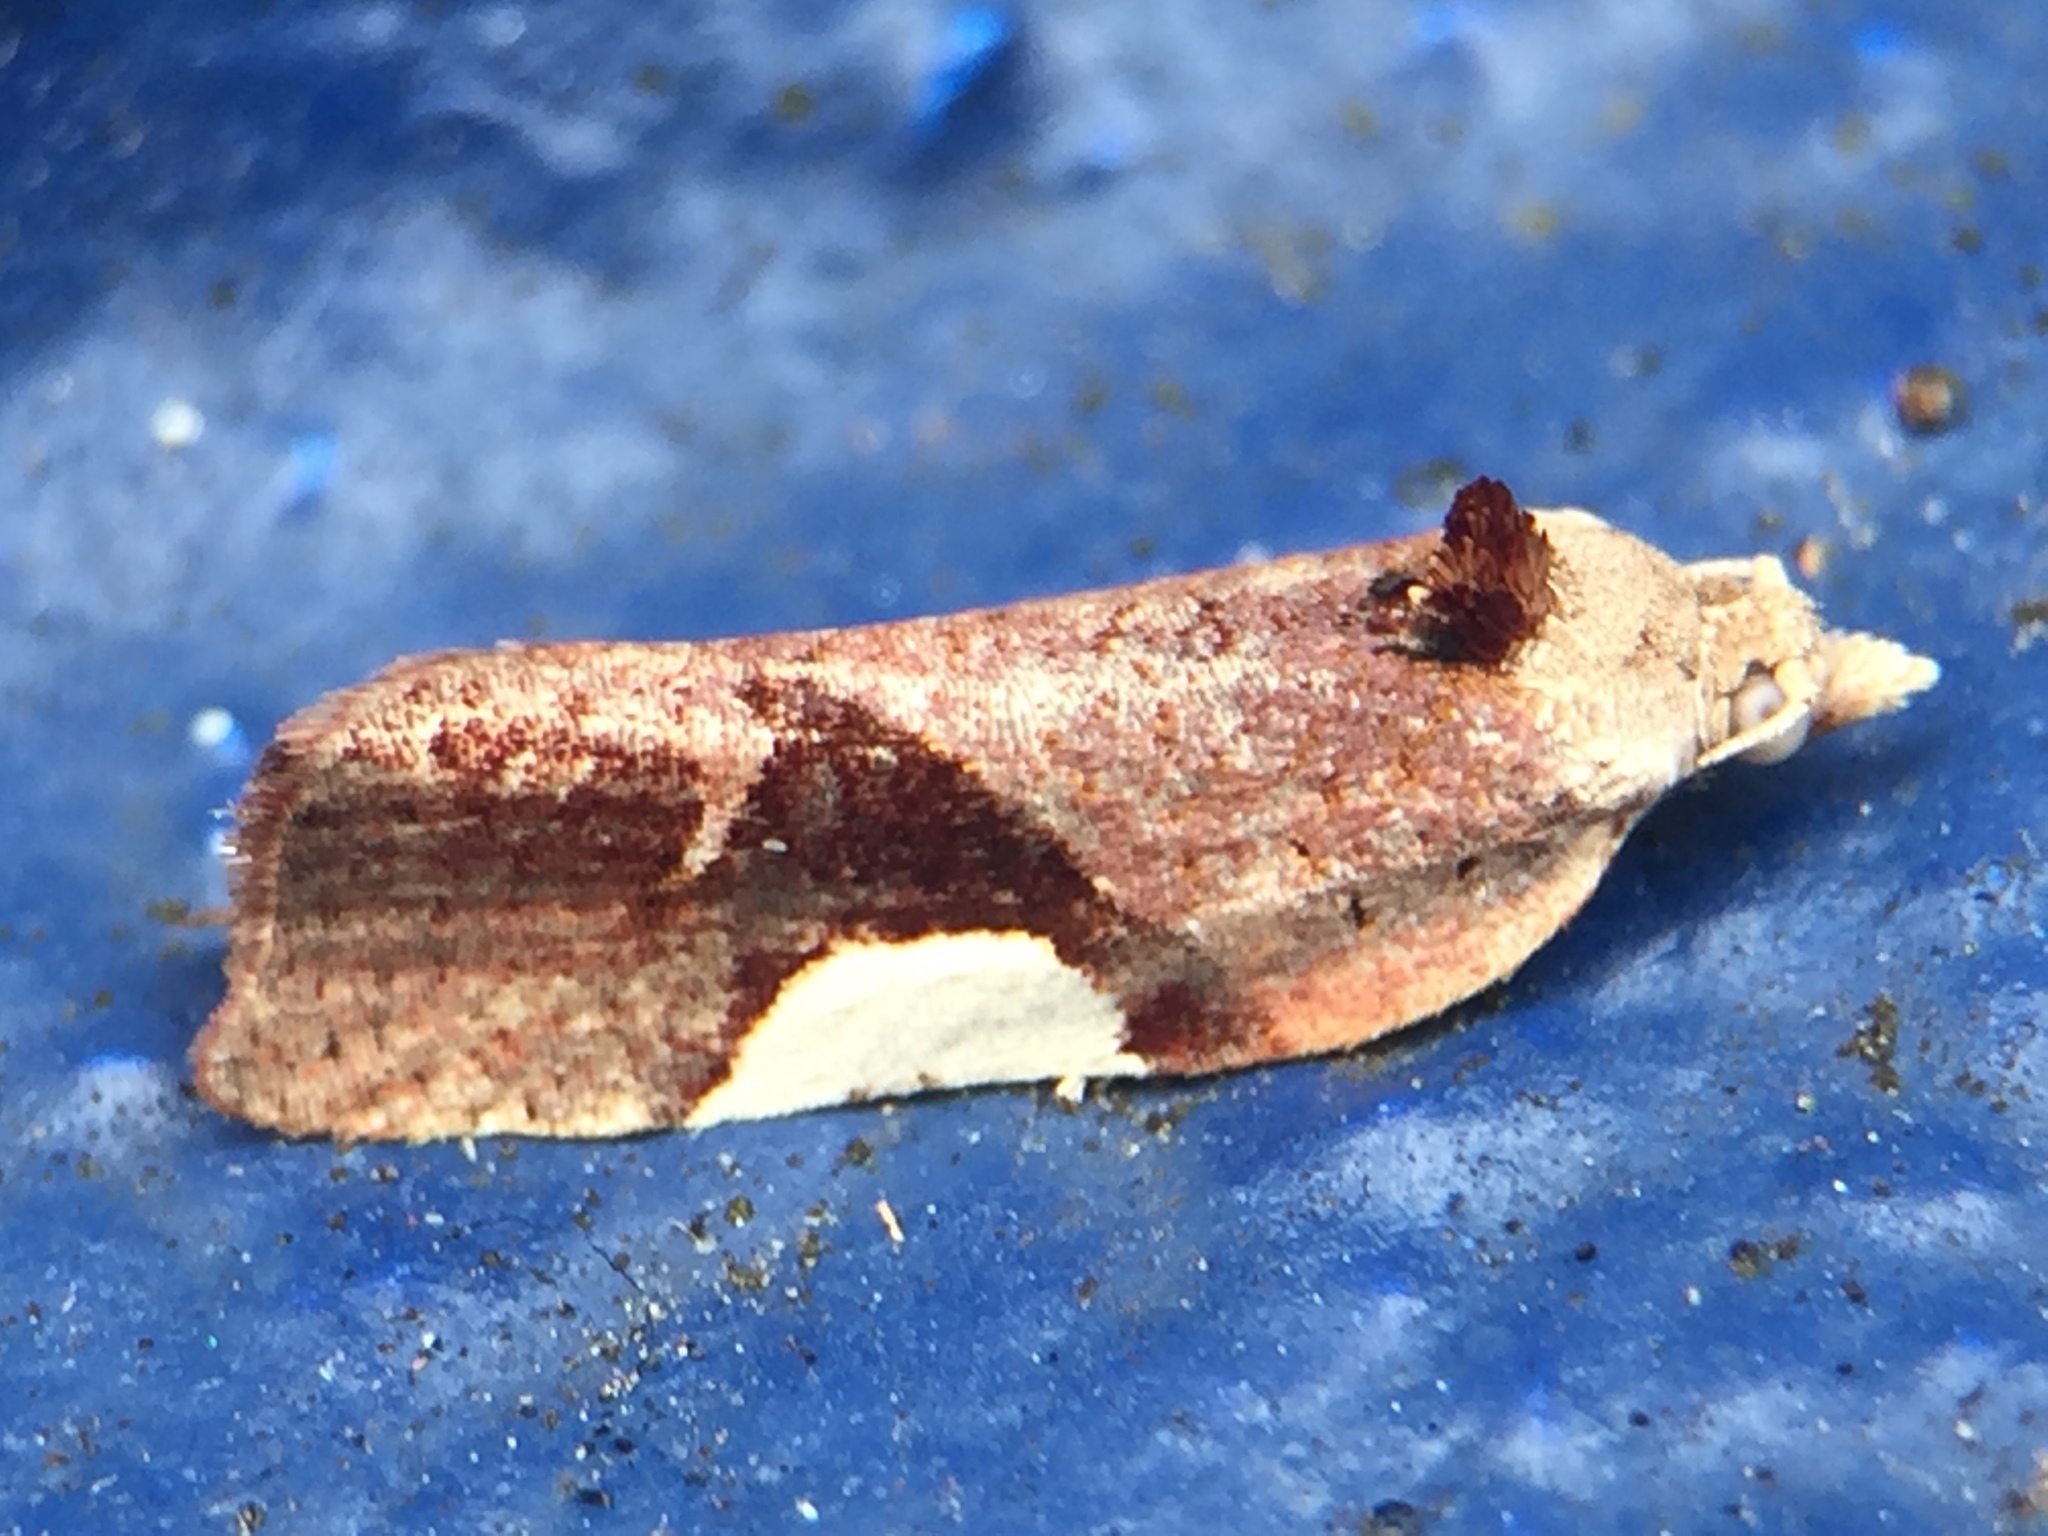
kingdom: Animalia
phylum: Arthropoda
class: Insecta
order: Lepidoptera
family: Tortricidae
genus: Pyrgotis
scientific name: Pyrgotis plagiatana
